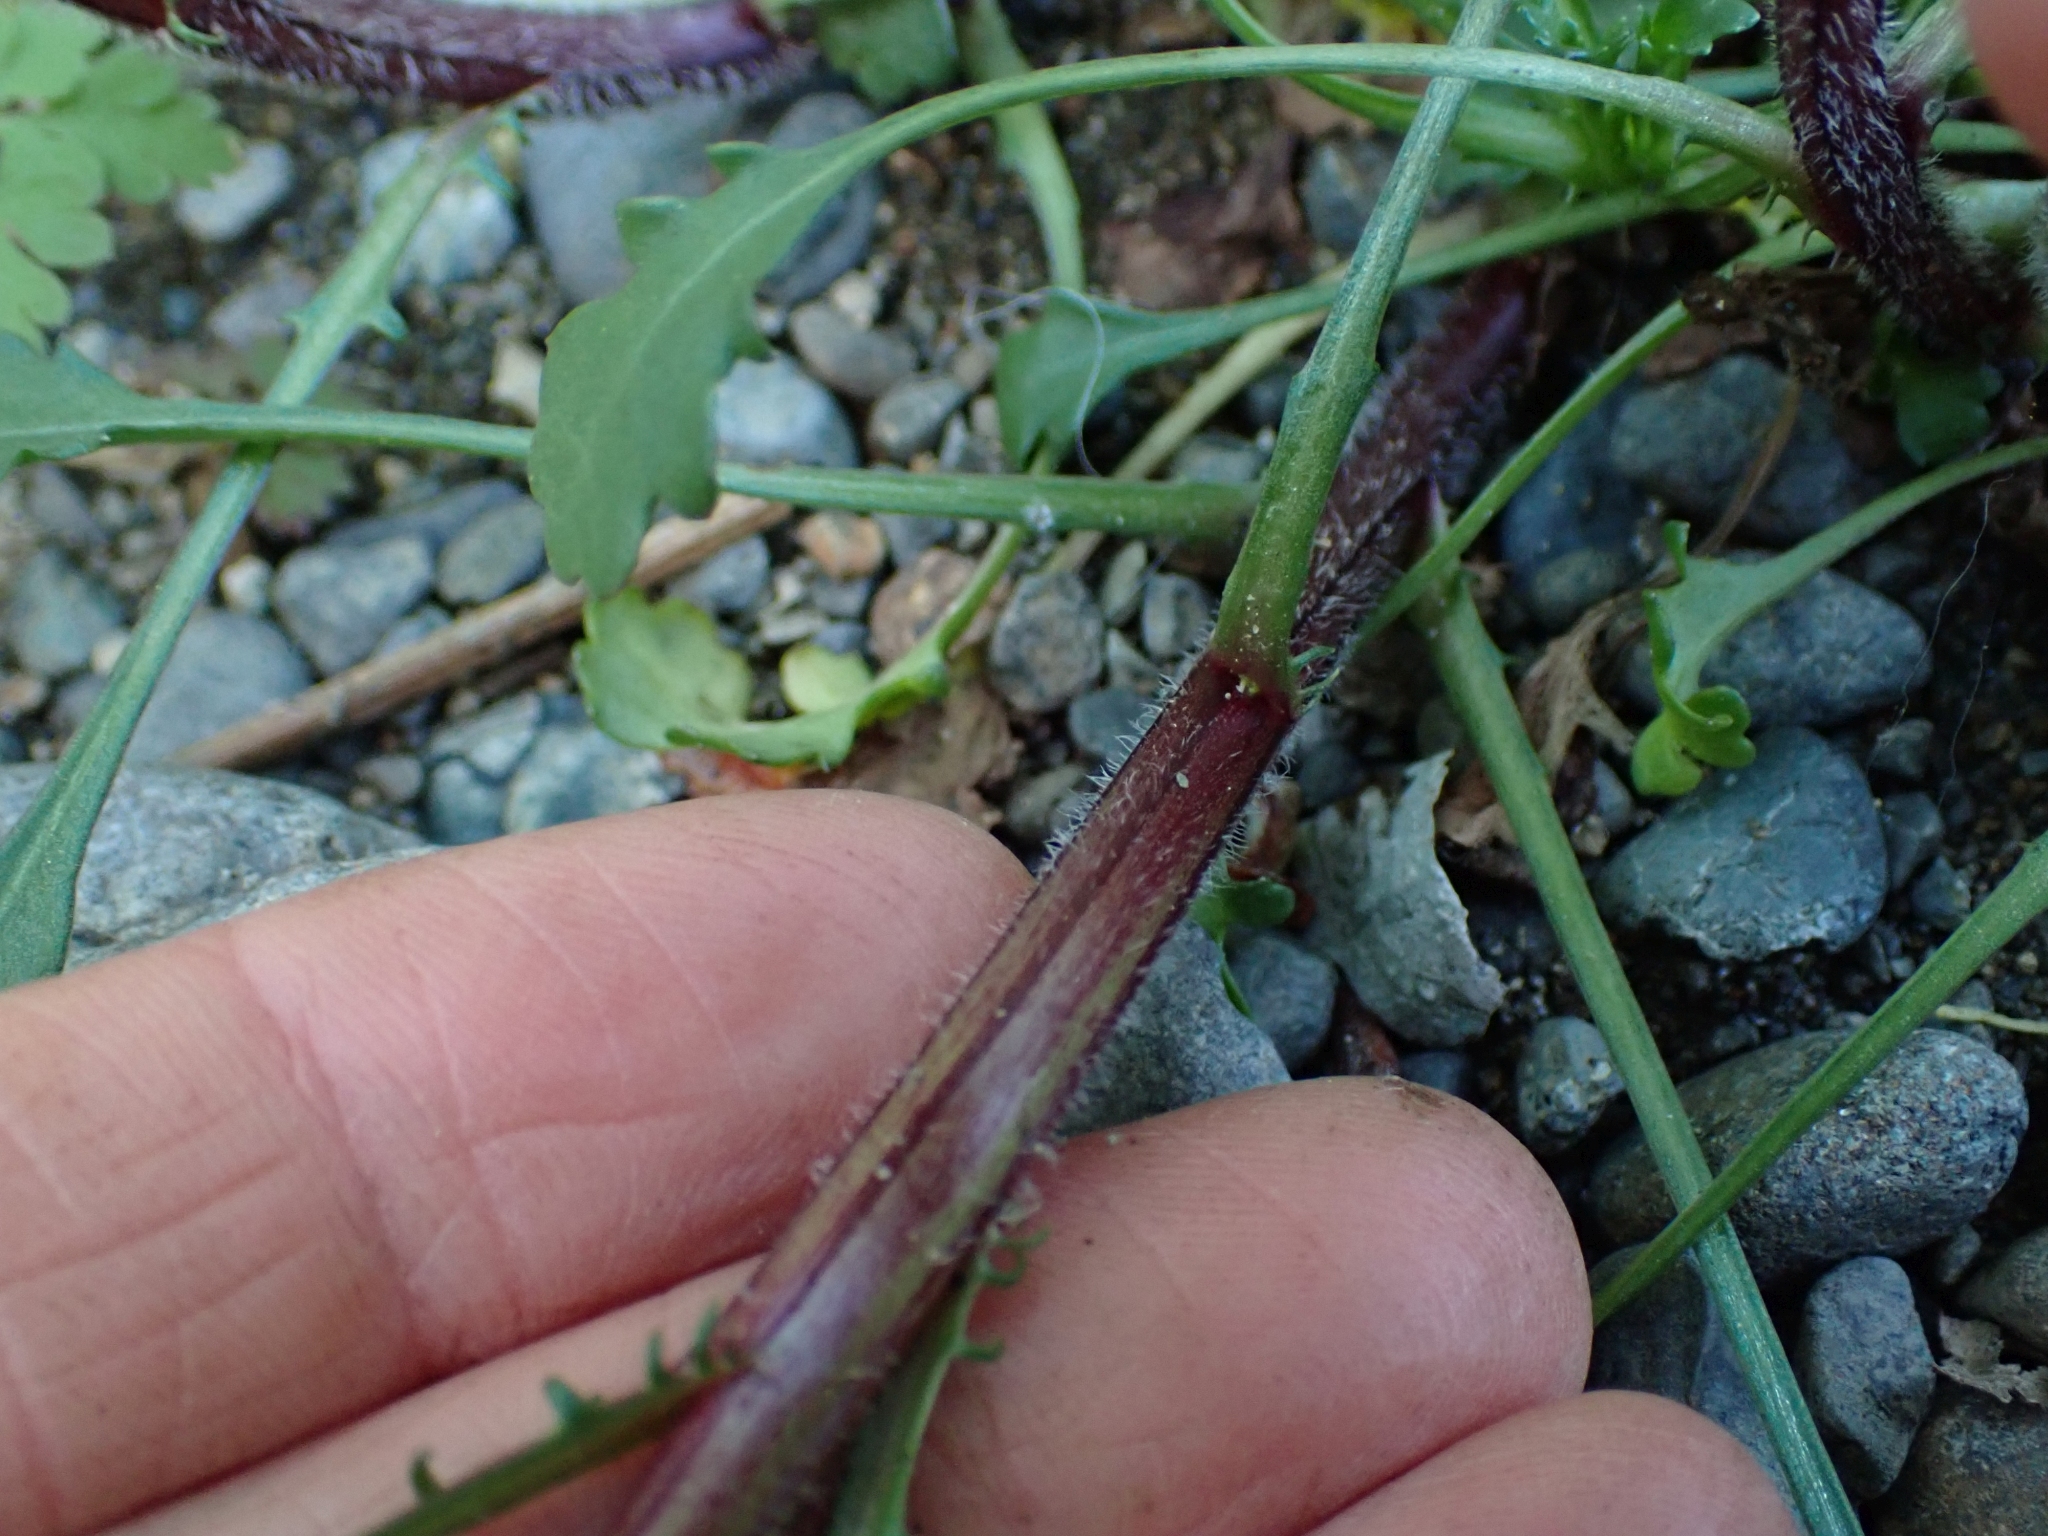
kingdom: Plantae
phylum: Tracheophyta
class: Magnoliopsida
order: Asterales
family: Asteraceae
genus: Leucanthemum
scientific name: Leucanthemum vulgare
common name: Oxeye daisy
